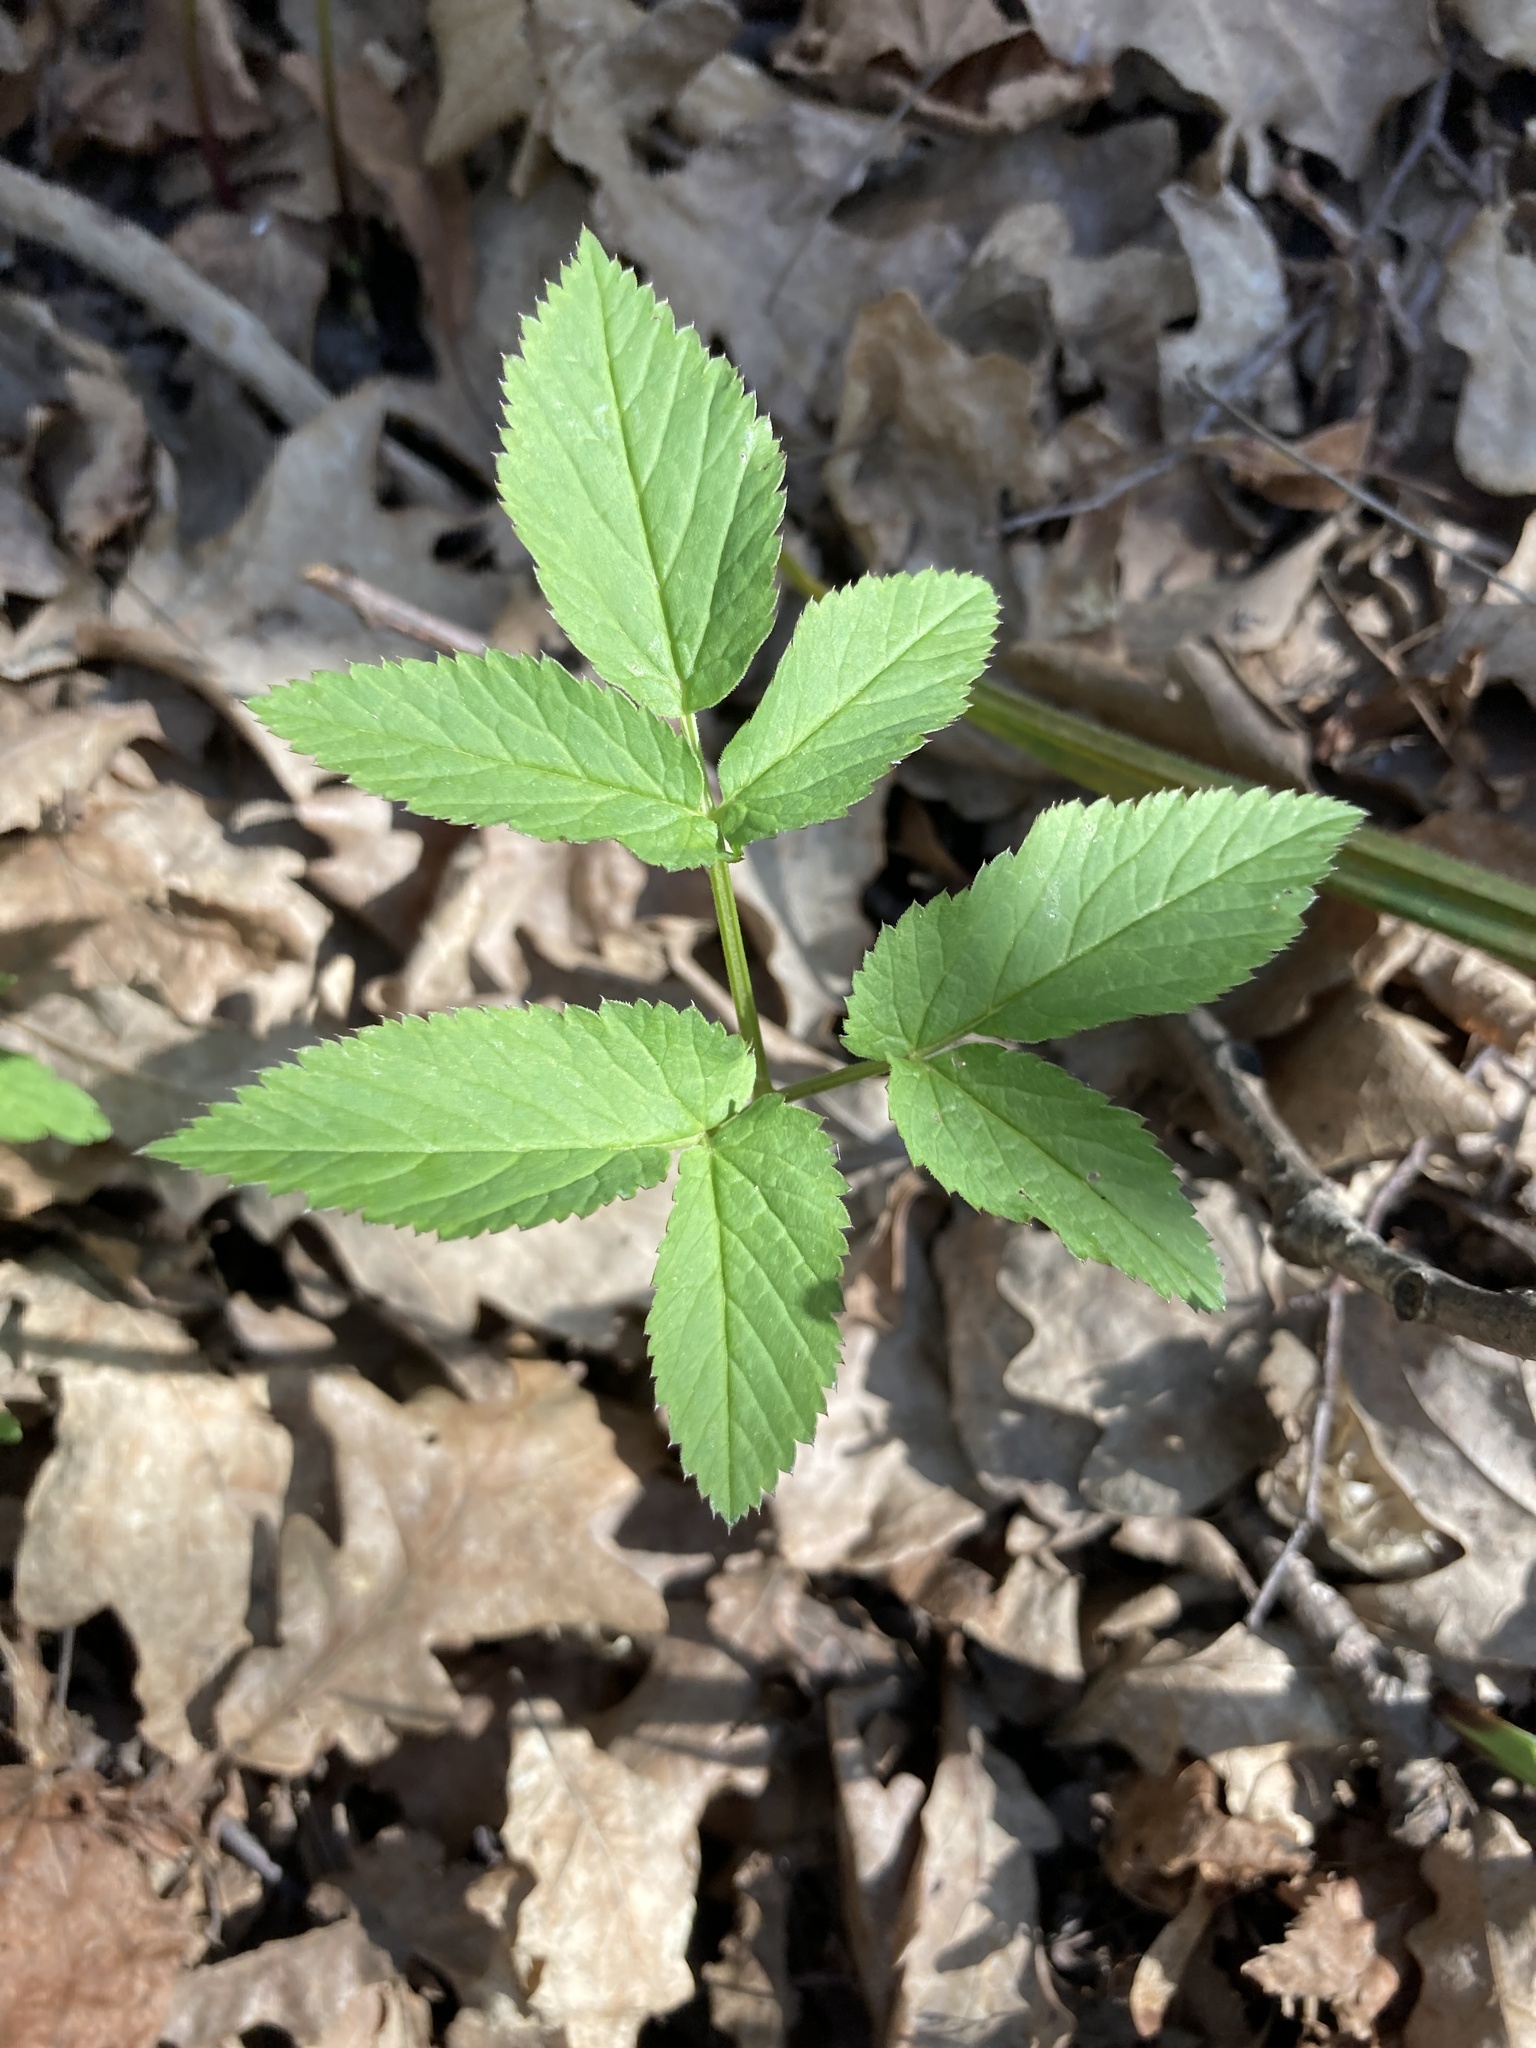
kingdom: Plantae
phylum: Tracheophyta
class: Magnoliopsida
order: Apiales
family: Apiaceae
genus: Aegopodium
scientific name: Aegopodium podagraria
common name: Ground-elder
